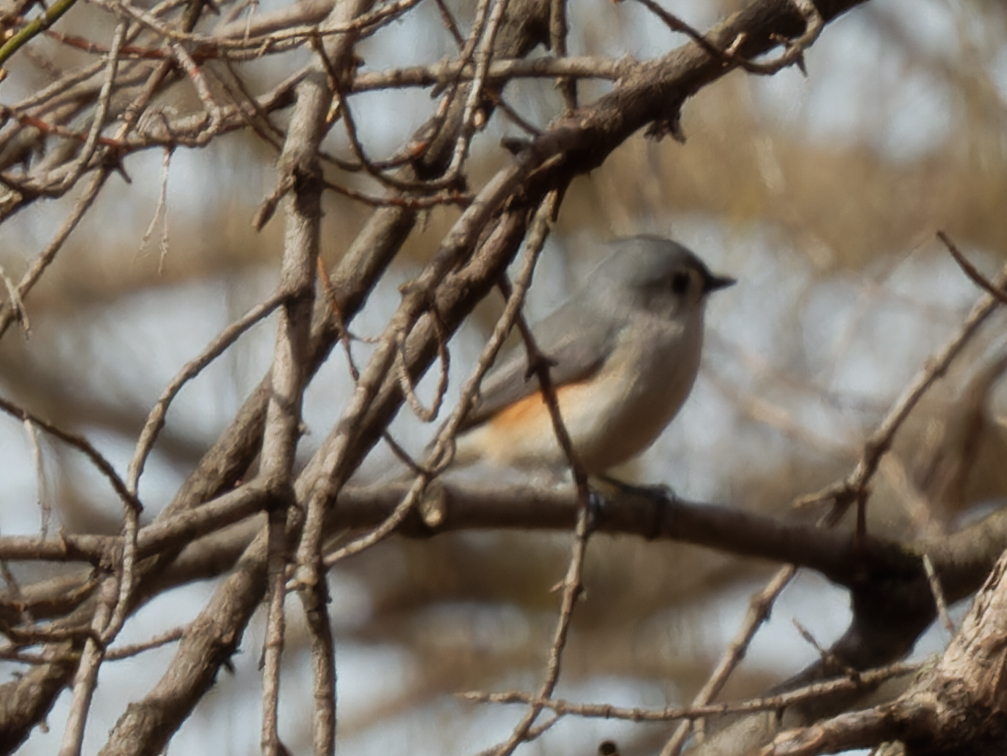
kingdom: Animalia
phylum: Chordata
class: Aves
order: Passeriformes
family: Paridae
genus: Baeolophus
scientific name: Baeolophus bicolor
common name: Tufted titmouse
